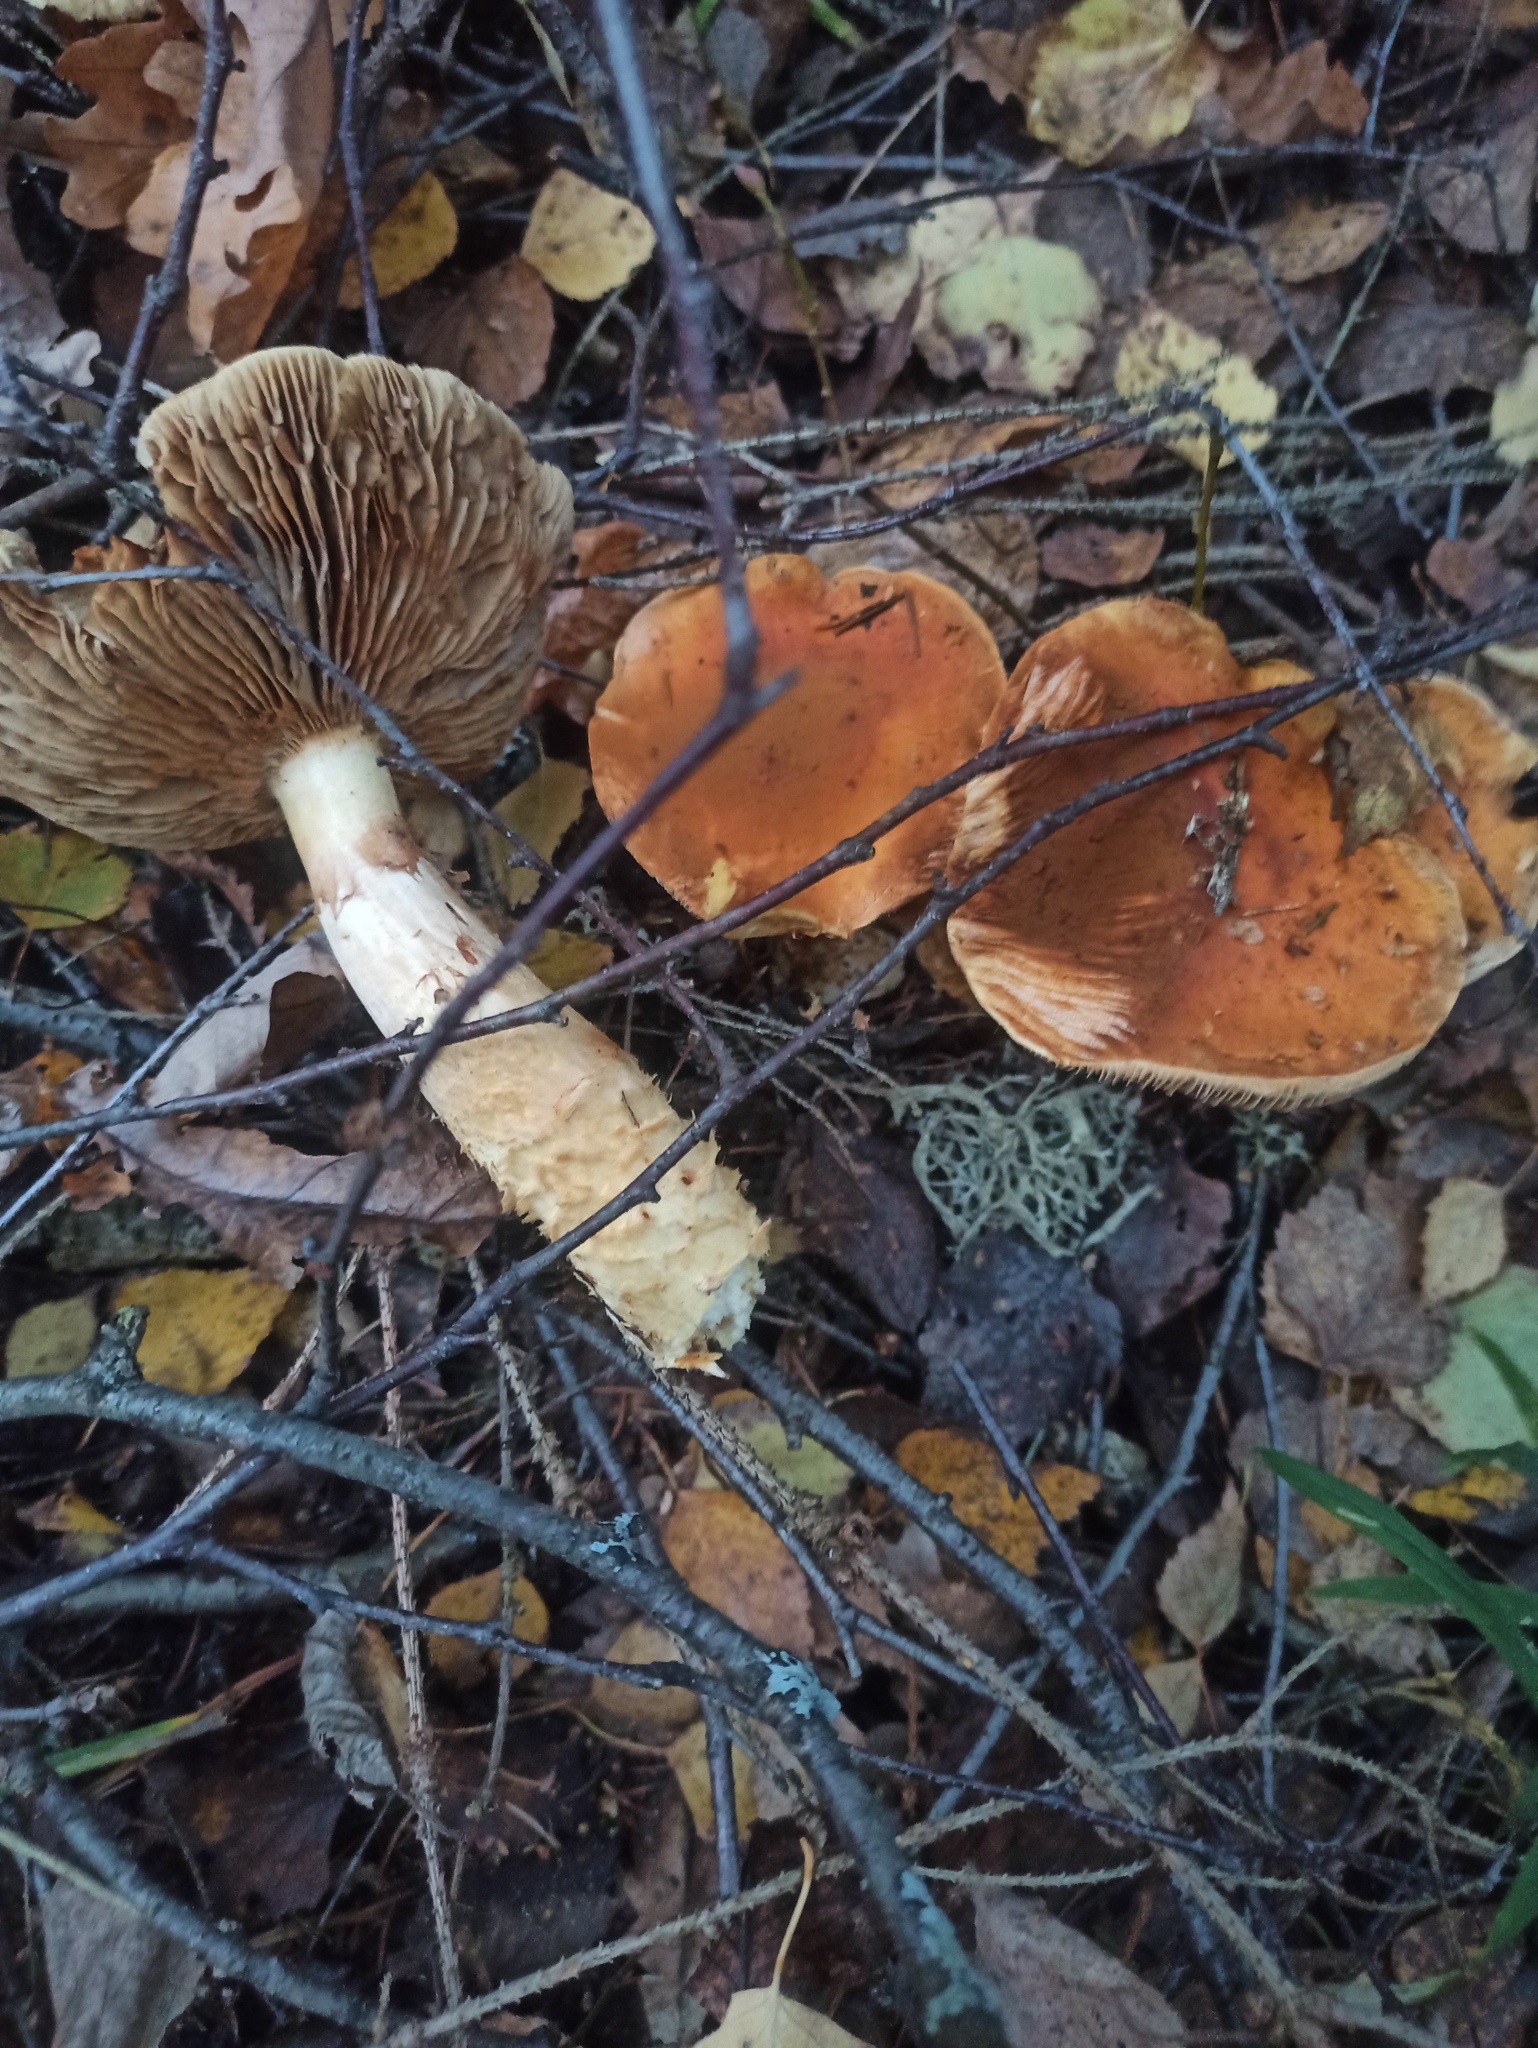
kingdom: Fungi
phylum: Basidiomycota
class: Agaricomycetes
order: Agaricales
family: Cortinariaceae
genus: Phlegmacium
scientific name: Phlegmacium triumphans
